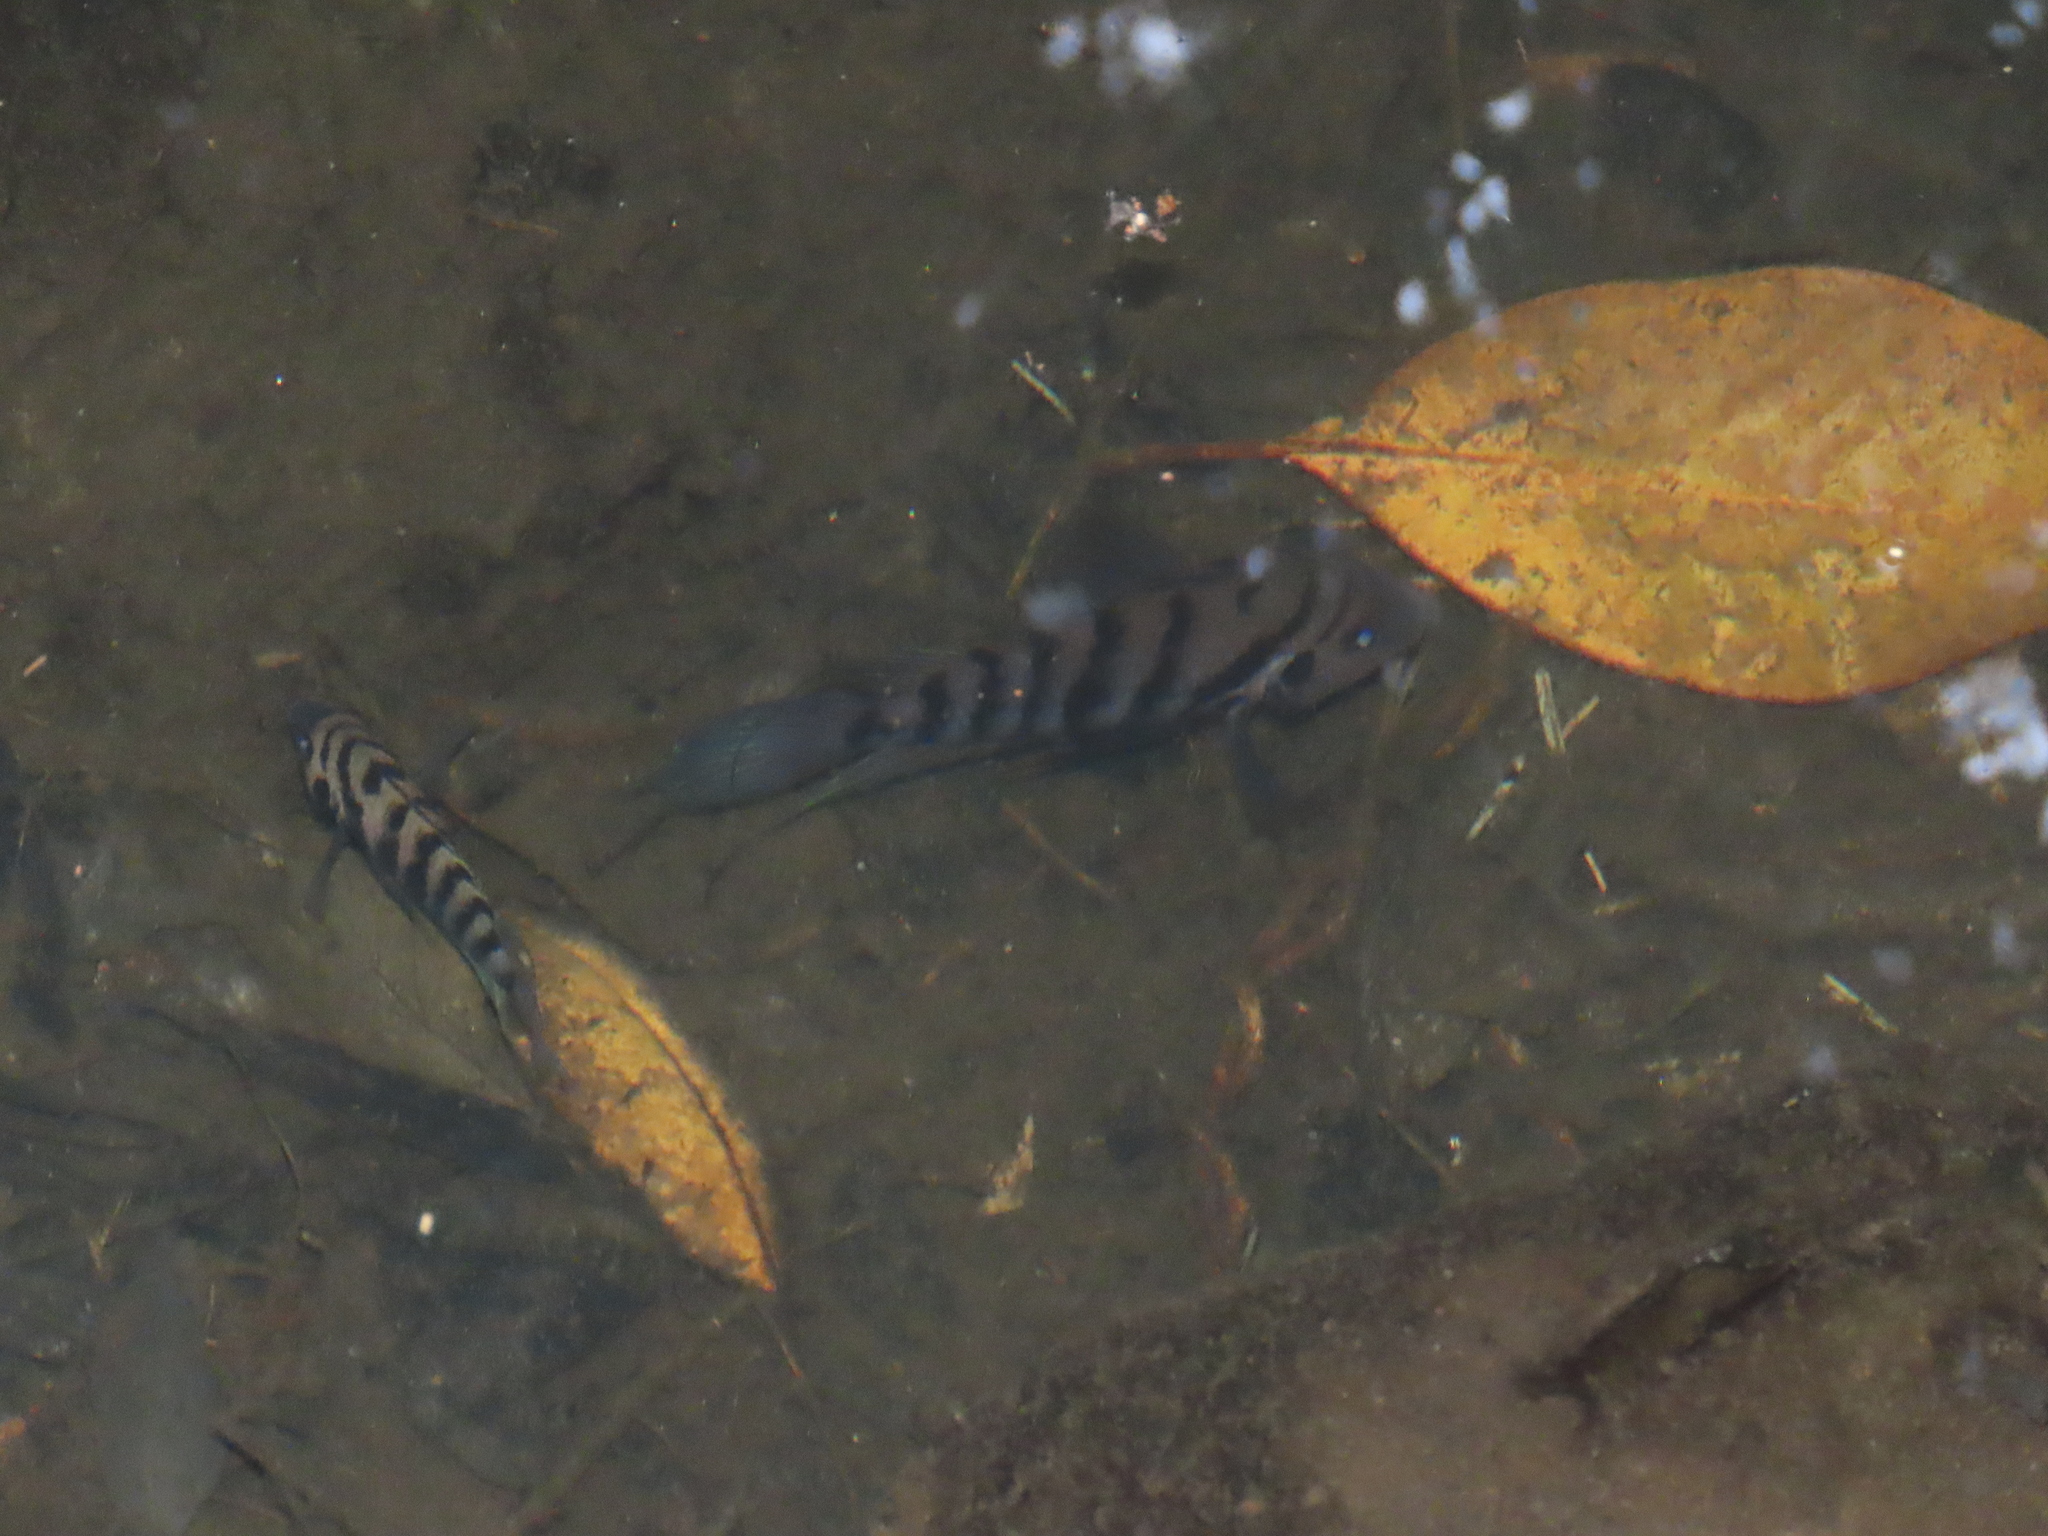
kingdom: Animalia
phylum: Chordata
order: Perciformes
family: Cichlidae
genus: Amatitlania
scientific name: Amatitlania nigrofasciata
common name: Convict cichlid
